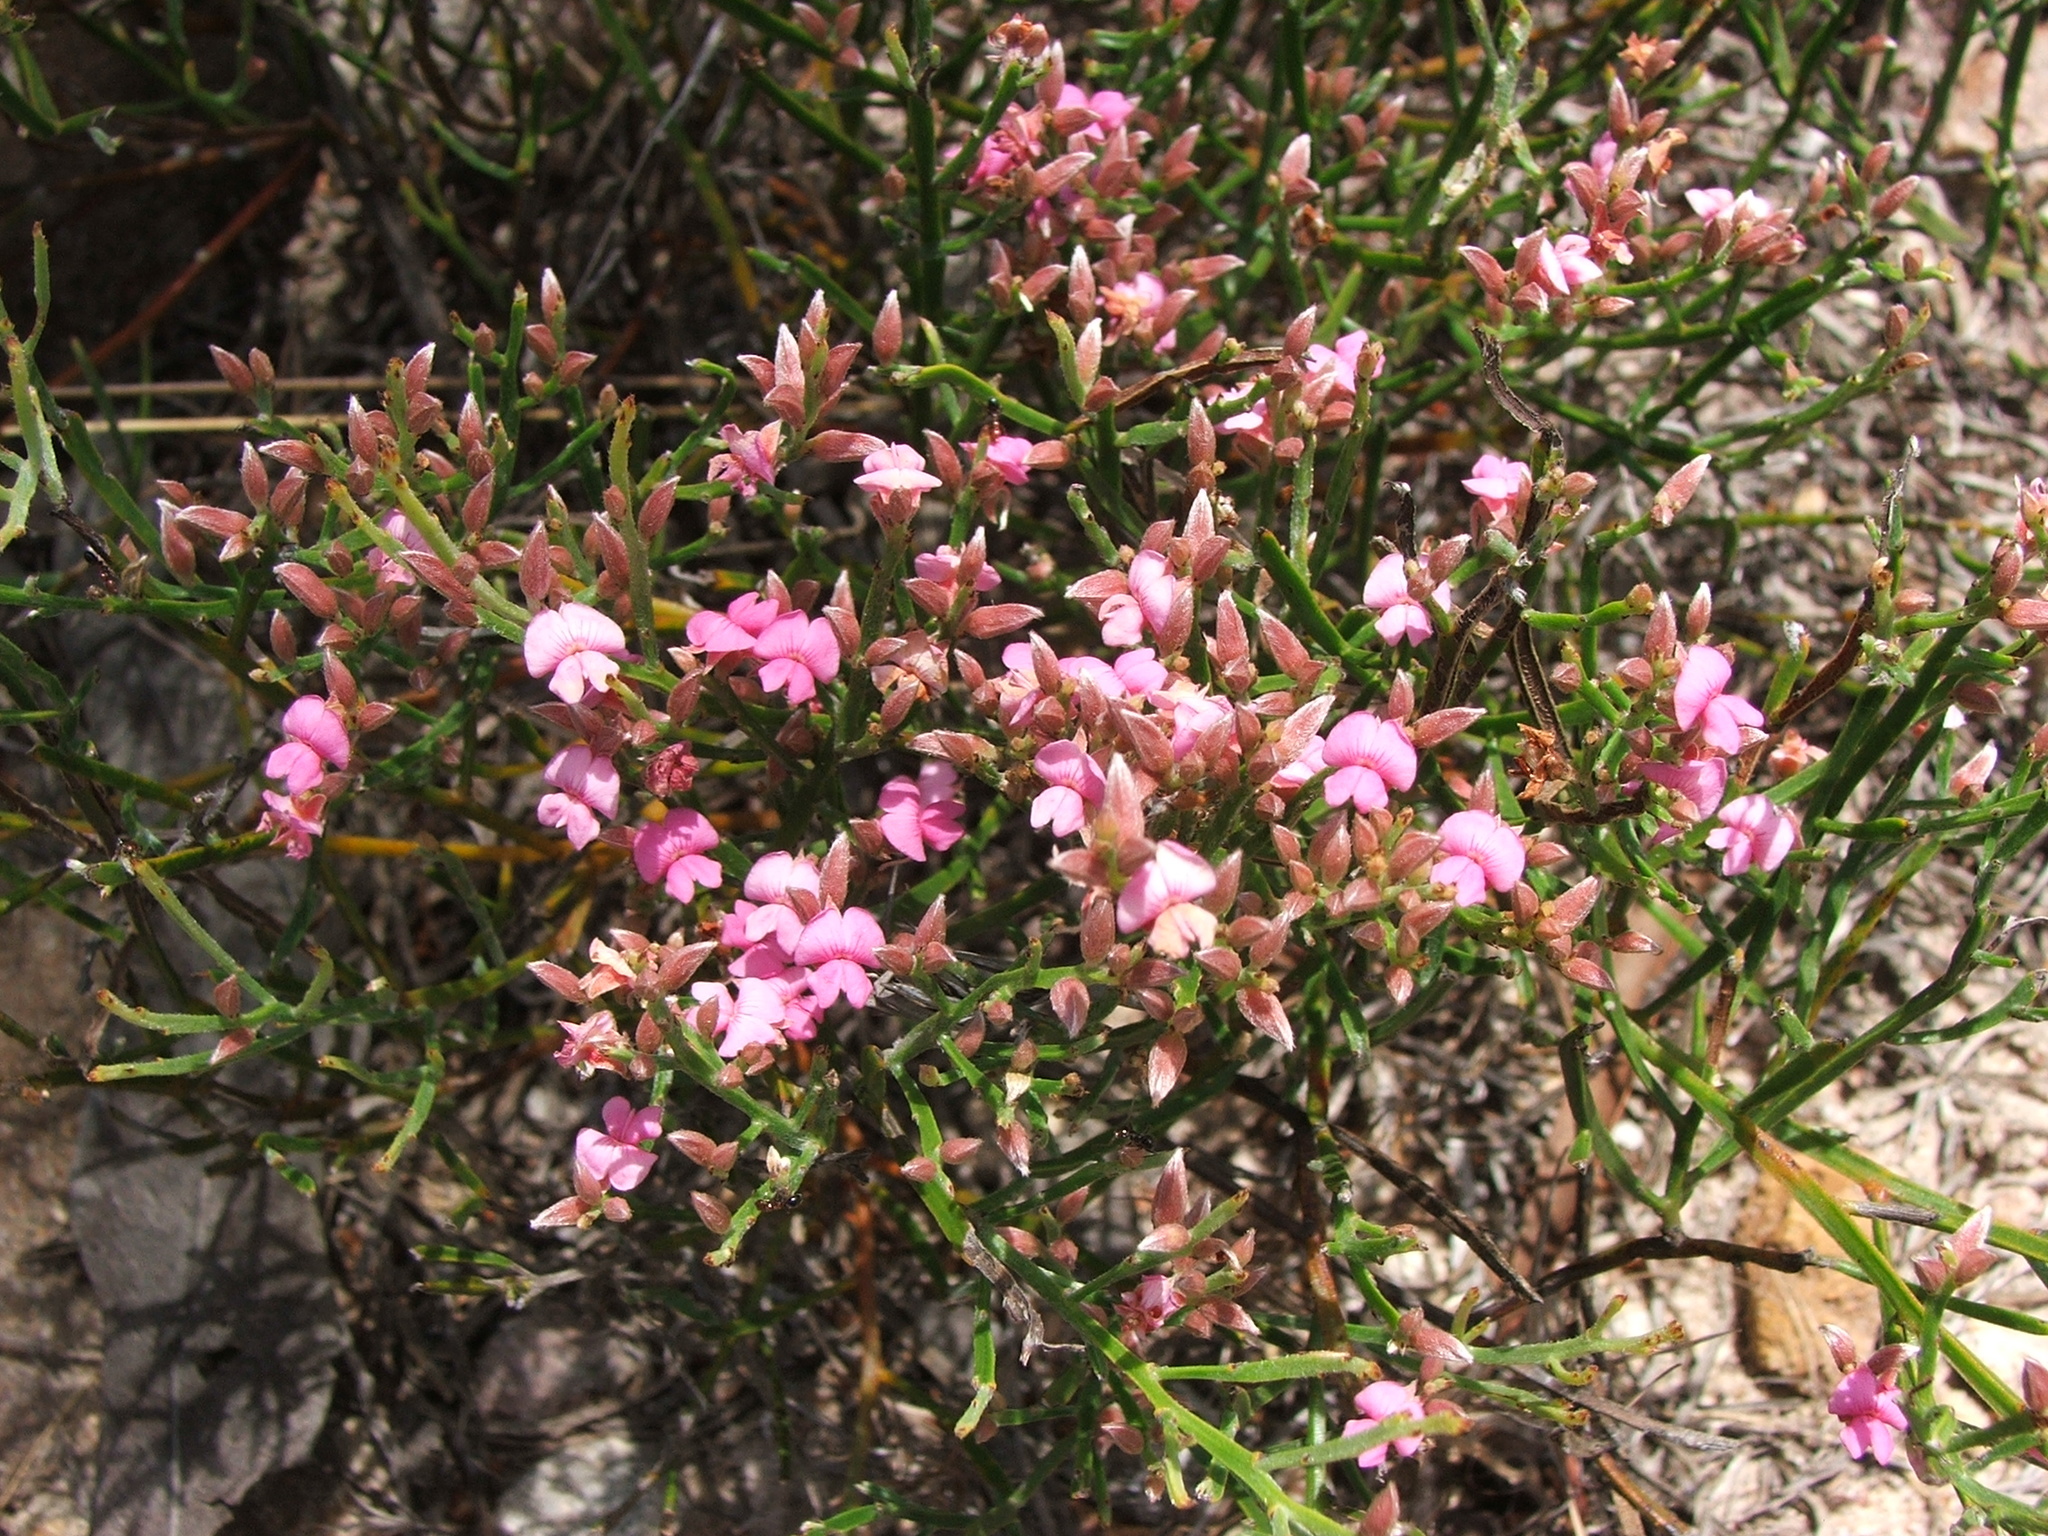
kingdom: Plantae
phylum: Tracheophyta
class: Magnoliopsida
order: Fabales
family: Fabaceae
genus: Jacksonia
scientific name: Jacksonia thesioides
